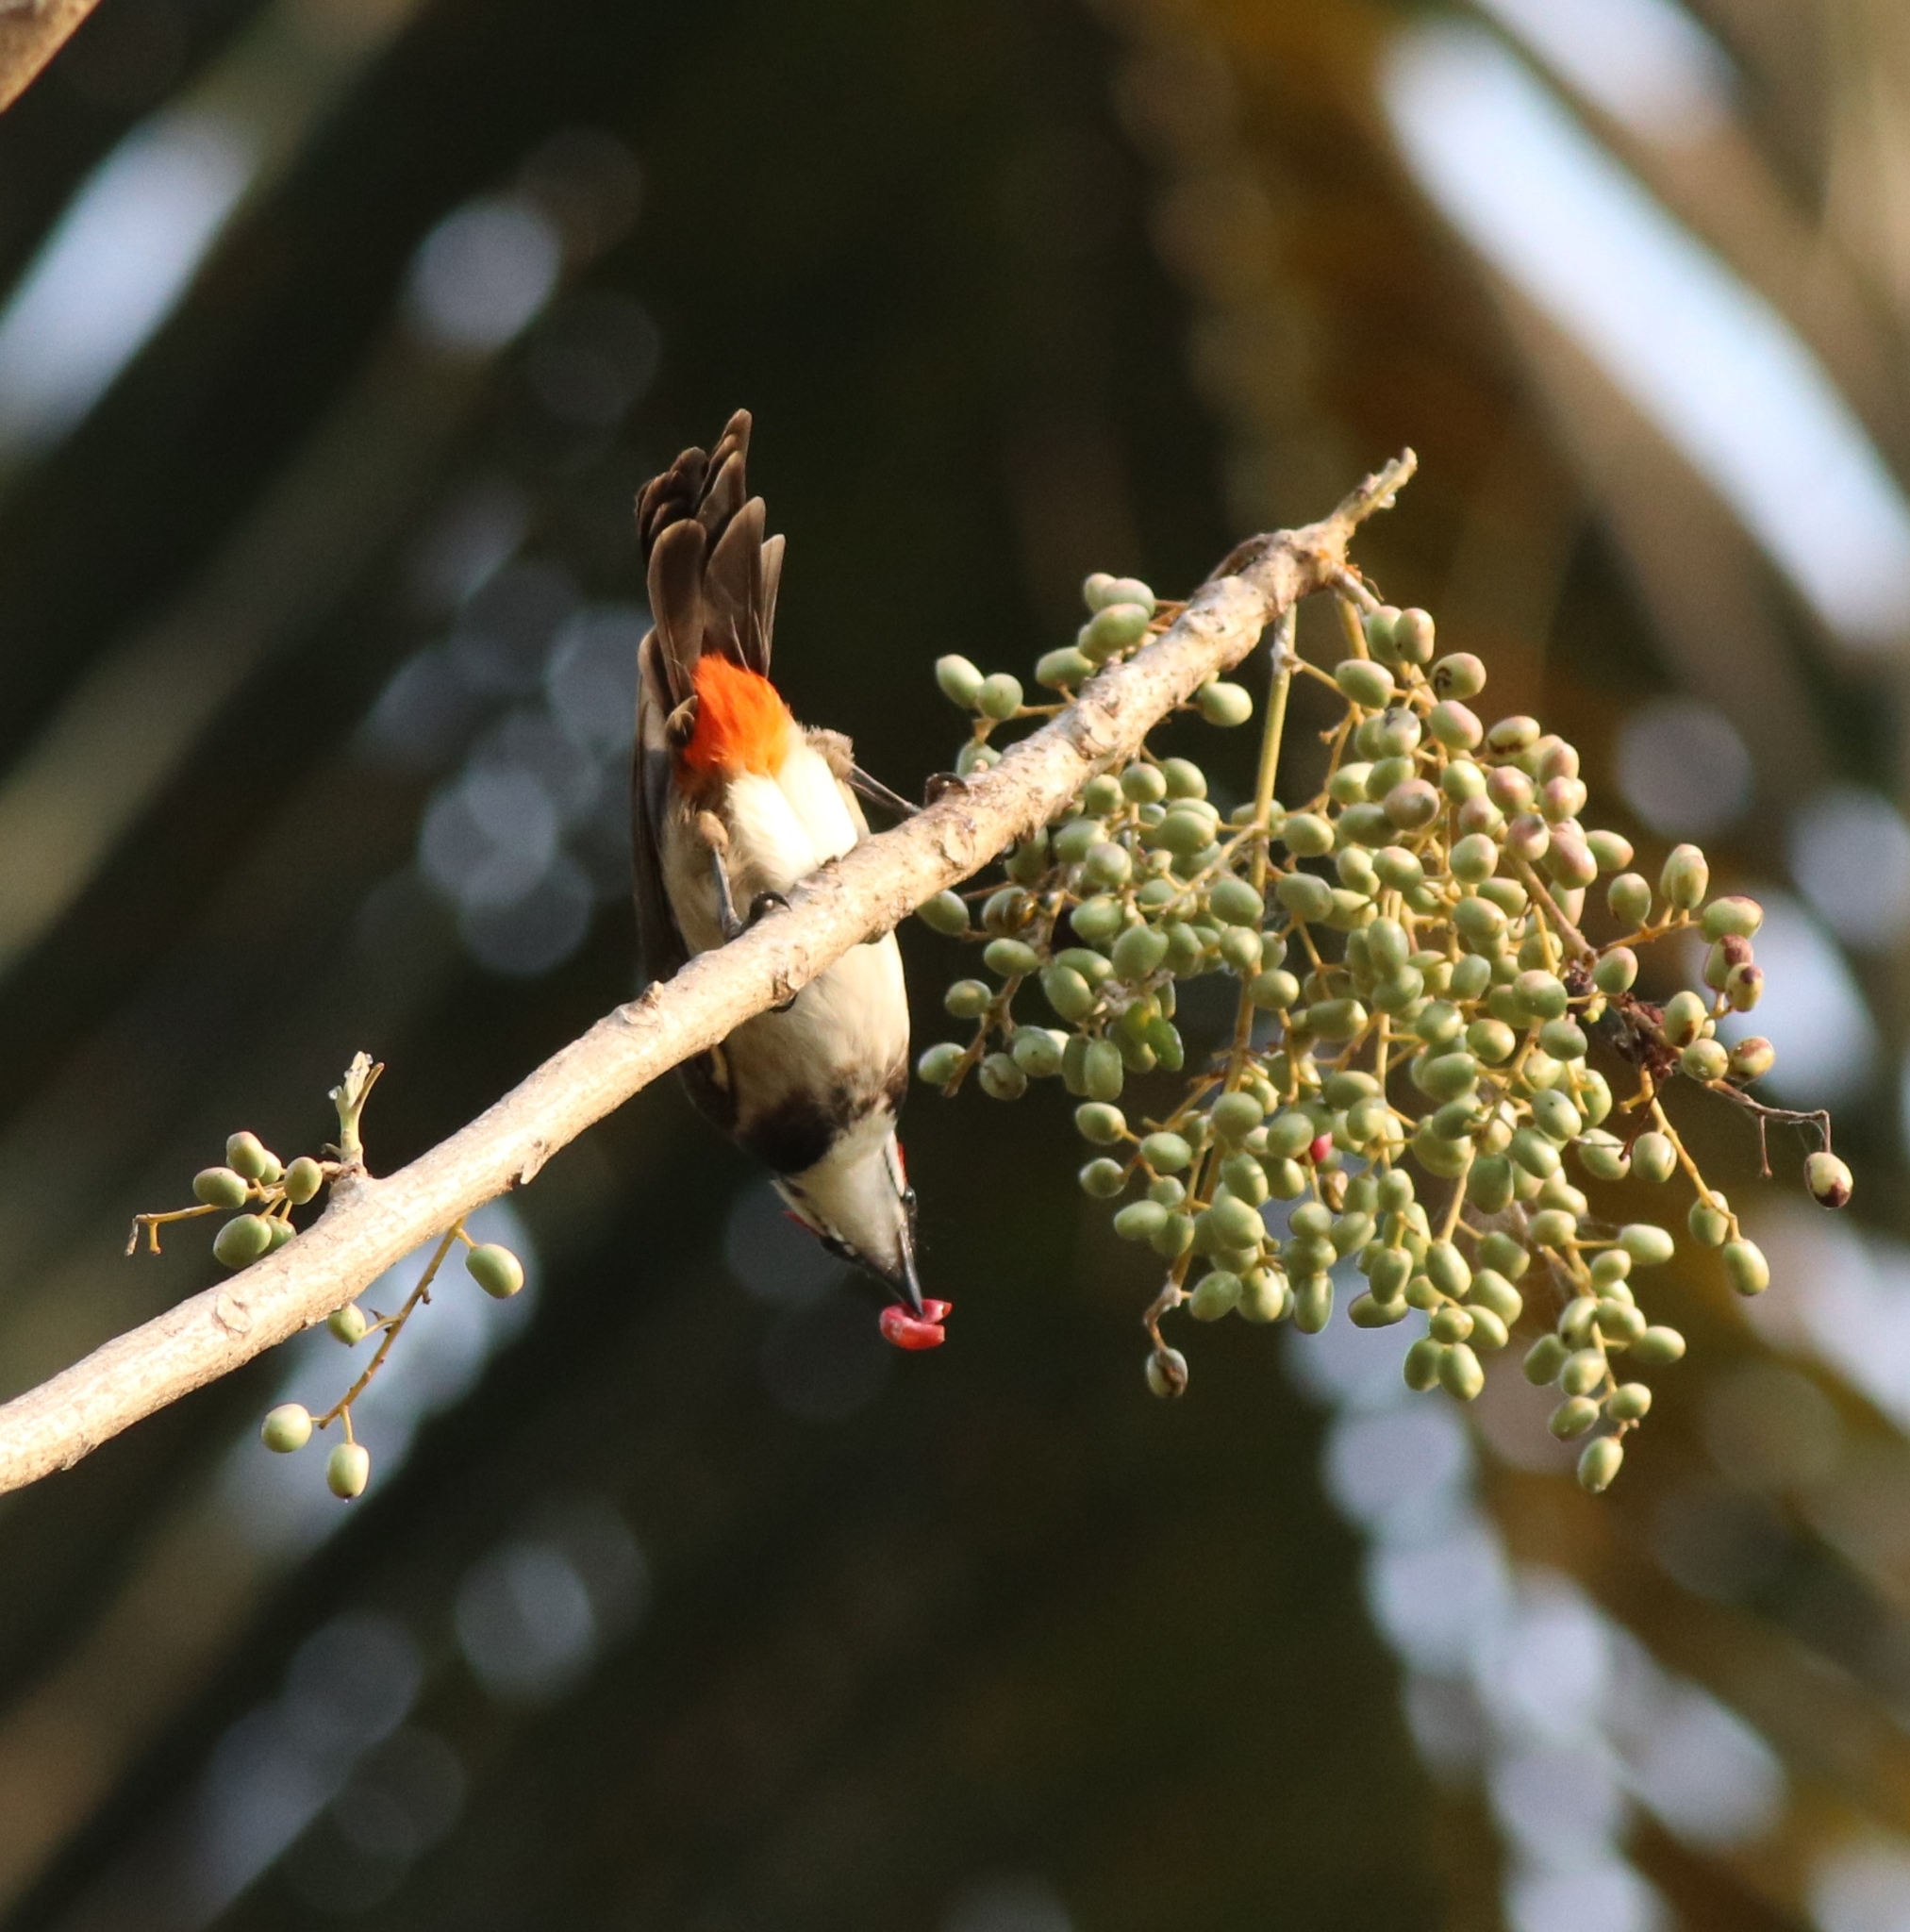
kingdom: Animalia
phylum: Chordata
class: Aves
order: Passeriformes
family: Pycnonotidae
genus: Pycnonotus
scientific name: Pycnonotus jocosus
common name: Red-whiskered bulbul
